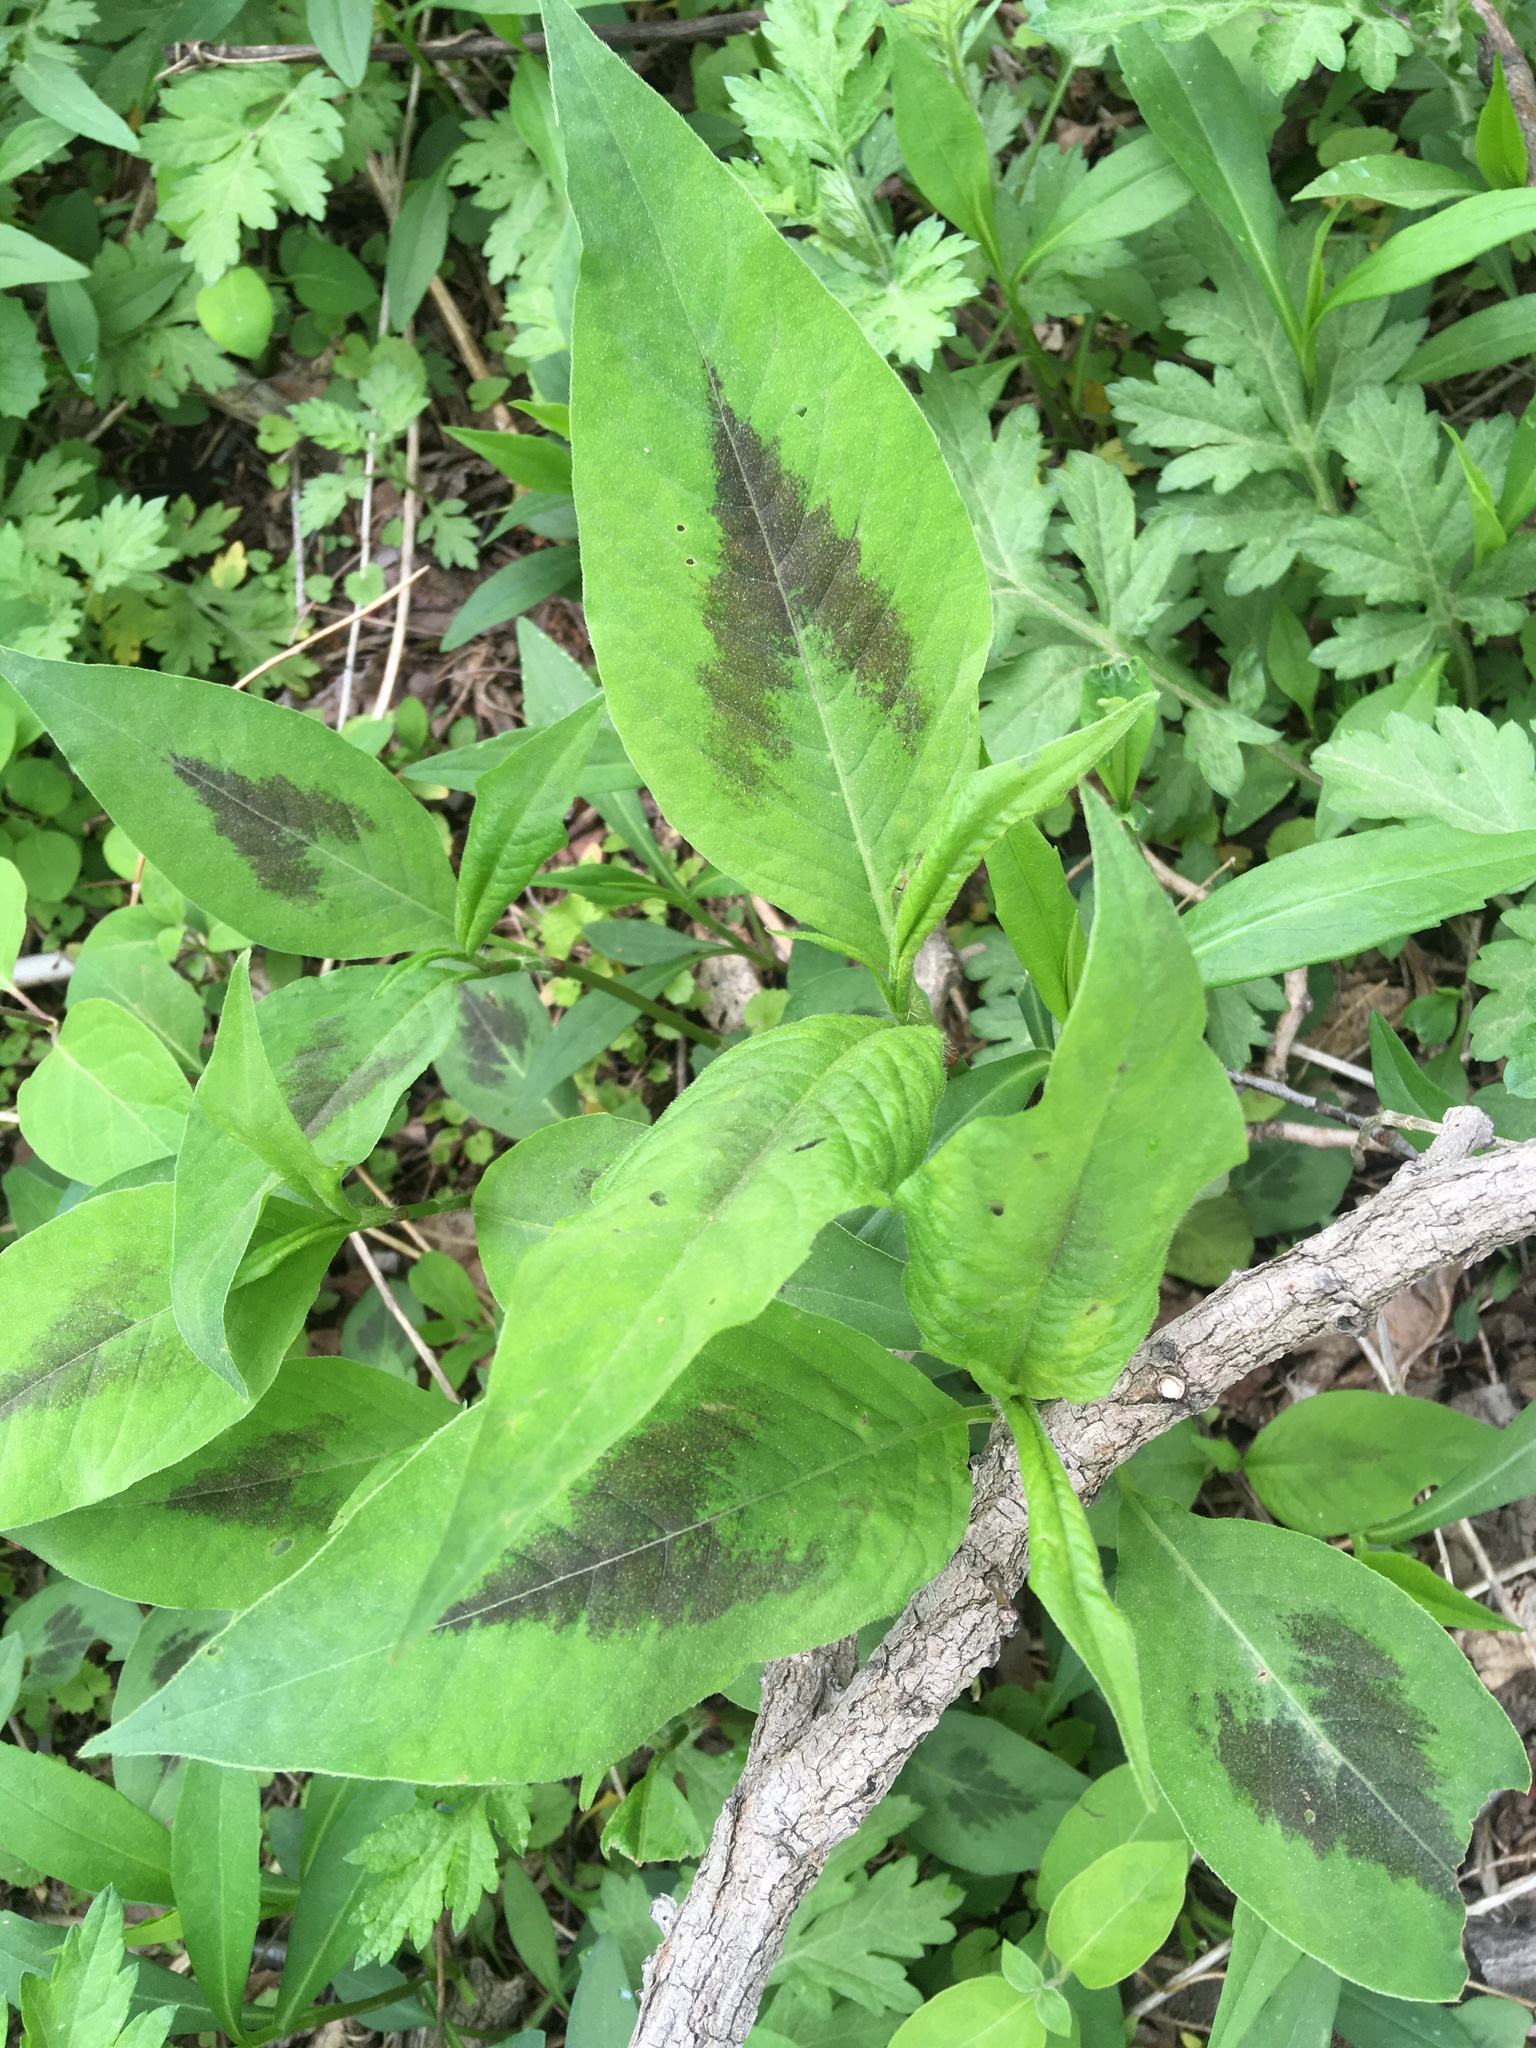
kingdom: Plantae
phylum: Tracheophyta
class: Magnoliopsida
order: Caryophyllales
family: Polygonaceae
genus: Persicaria
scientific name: Persicaria virginiana
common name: Jumpseed
